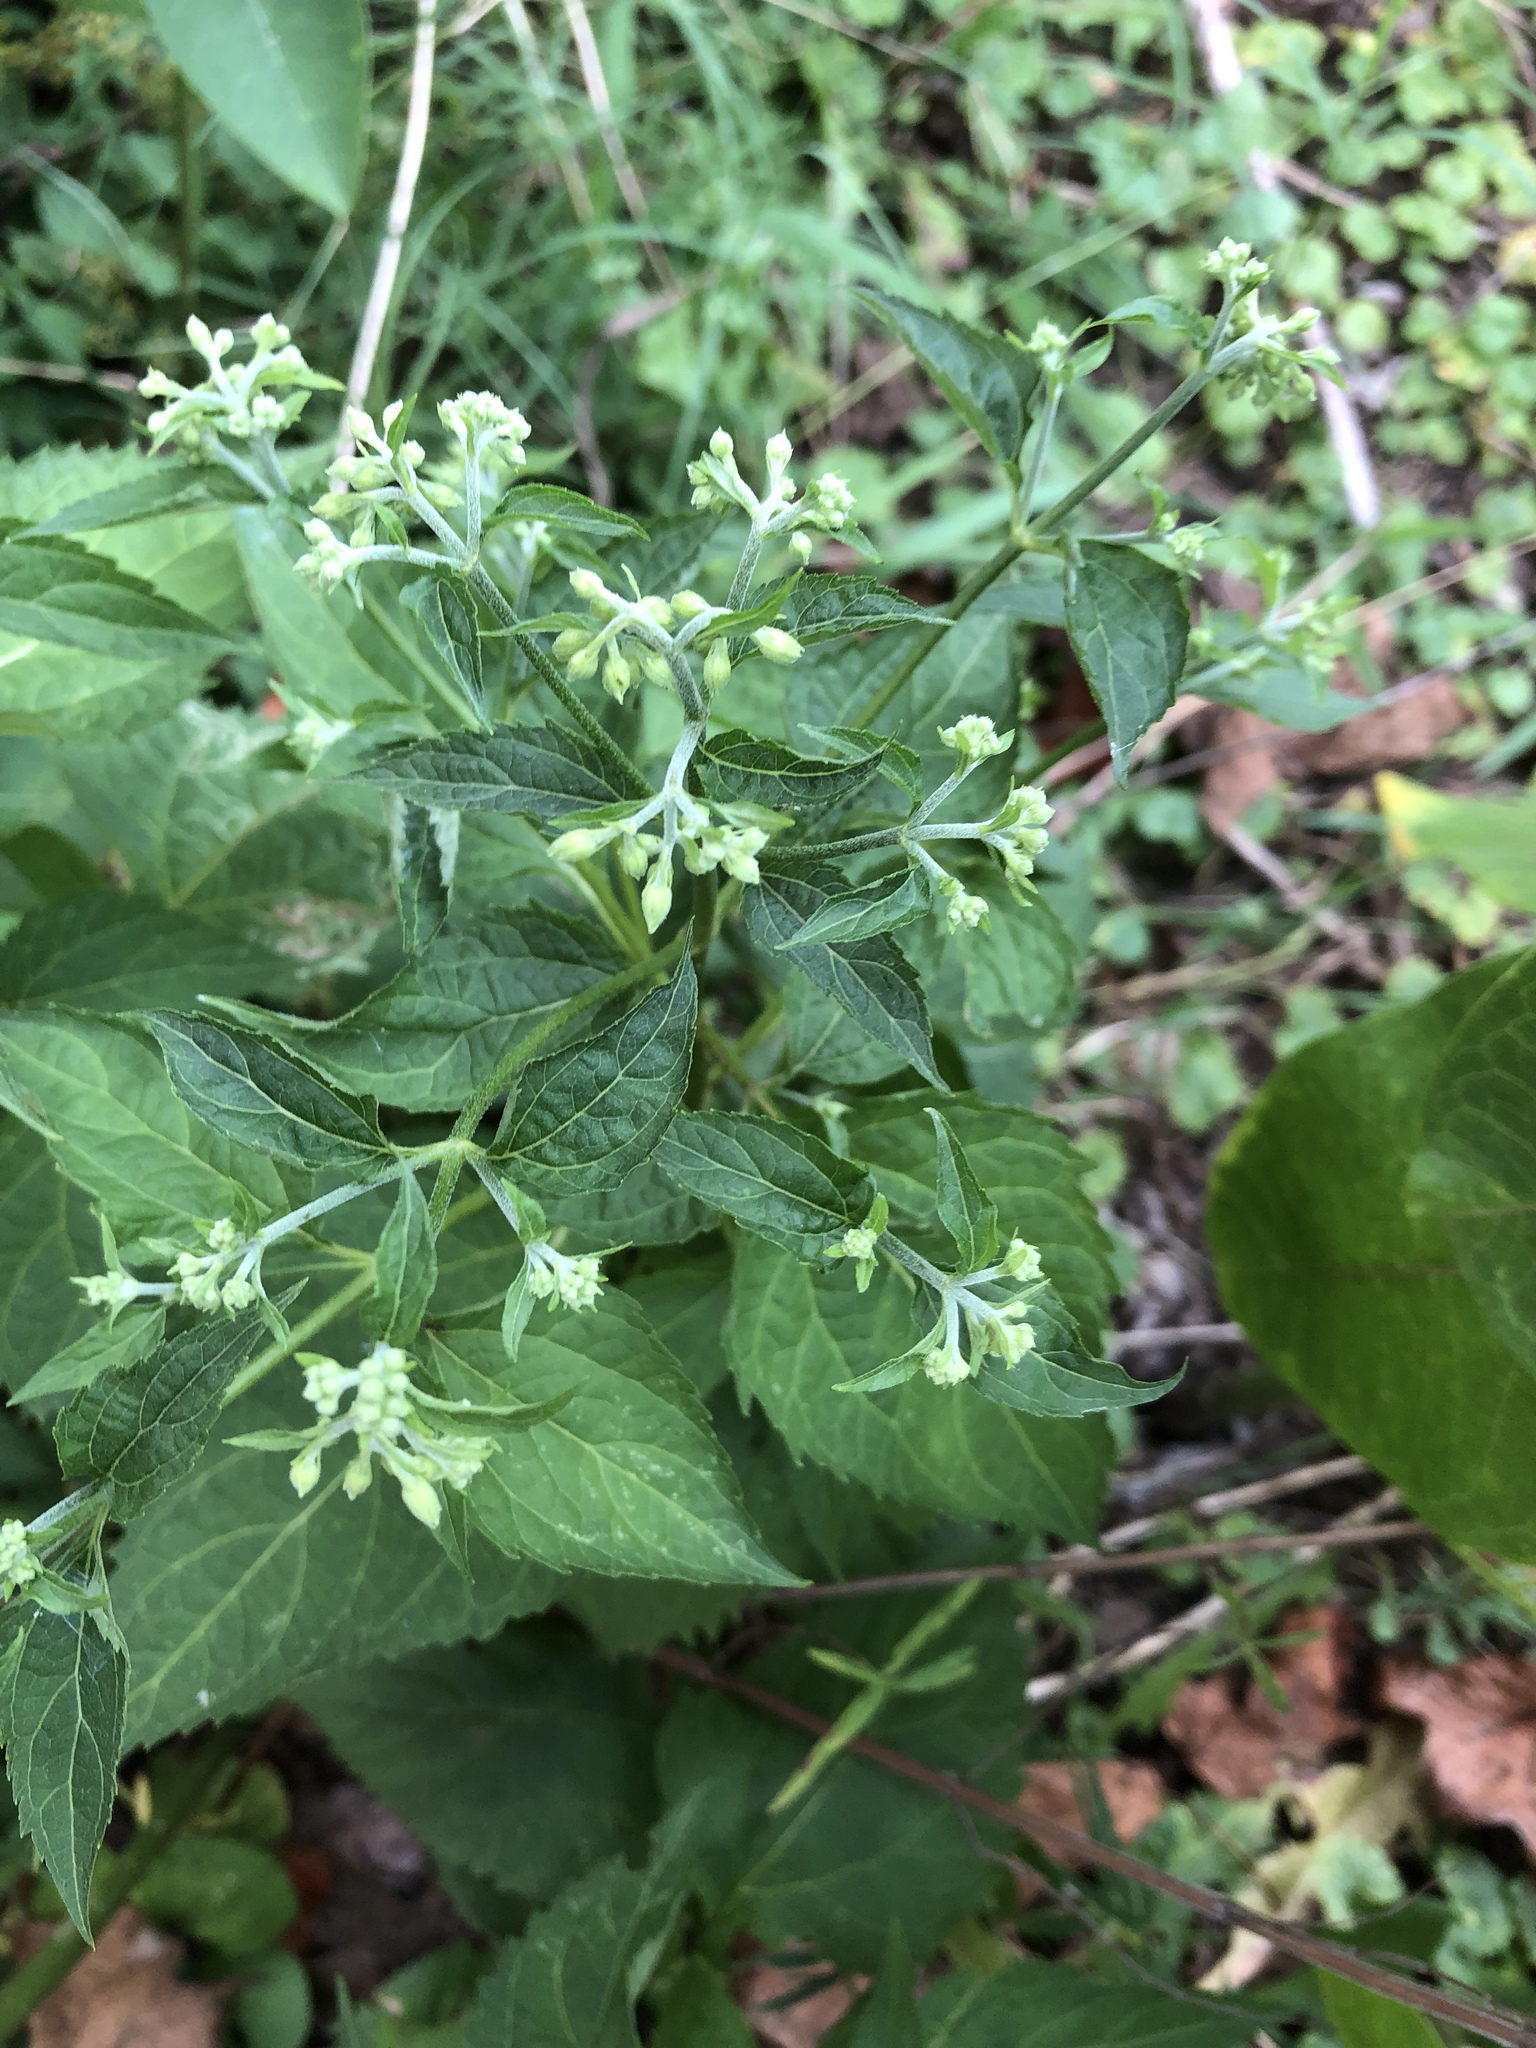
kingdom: Plantae
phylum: Tracheophyta
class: Magnoliopsida
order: Asterales
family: Asteraceae
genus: Ageratina
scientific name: Ageratina altissima
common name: White snakeroot
